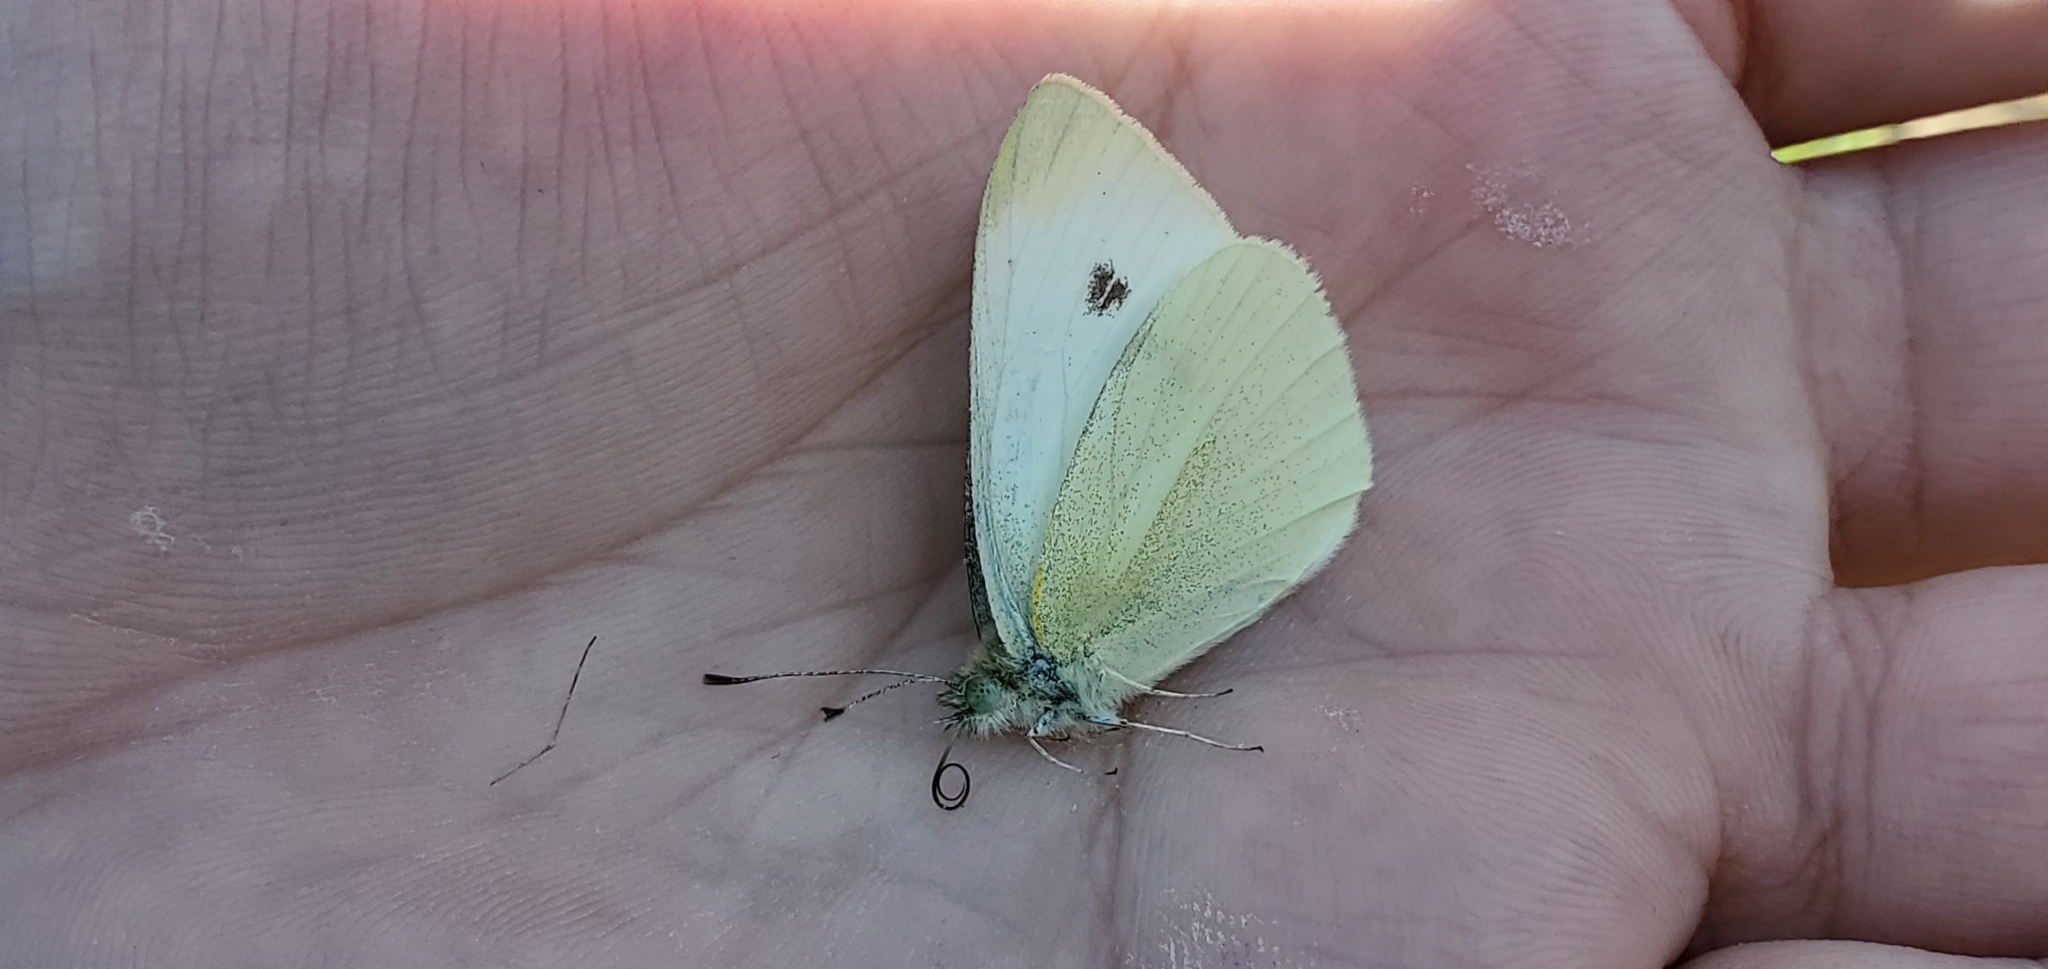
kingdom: Animalia
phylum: Arthropoda
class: Insecta
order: Lepidoptera
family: Pieridae
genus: Pieris
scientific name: Pieris rapae
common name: Small white
